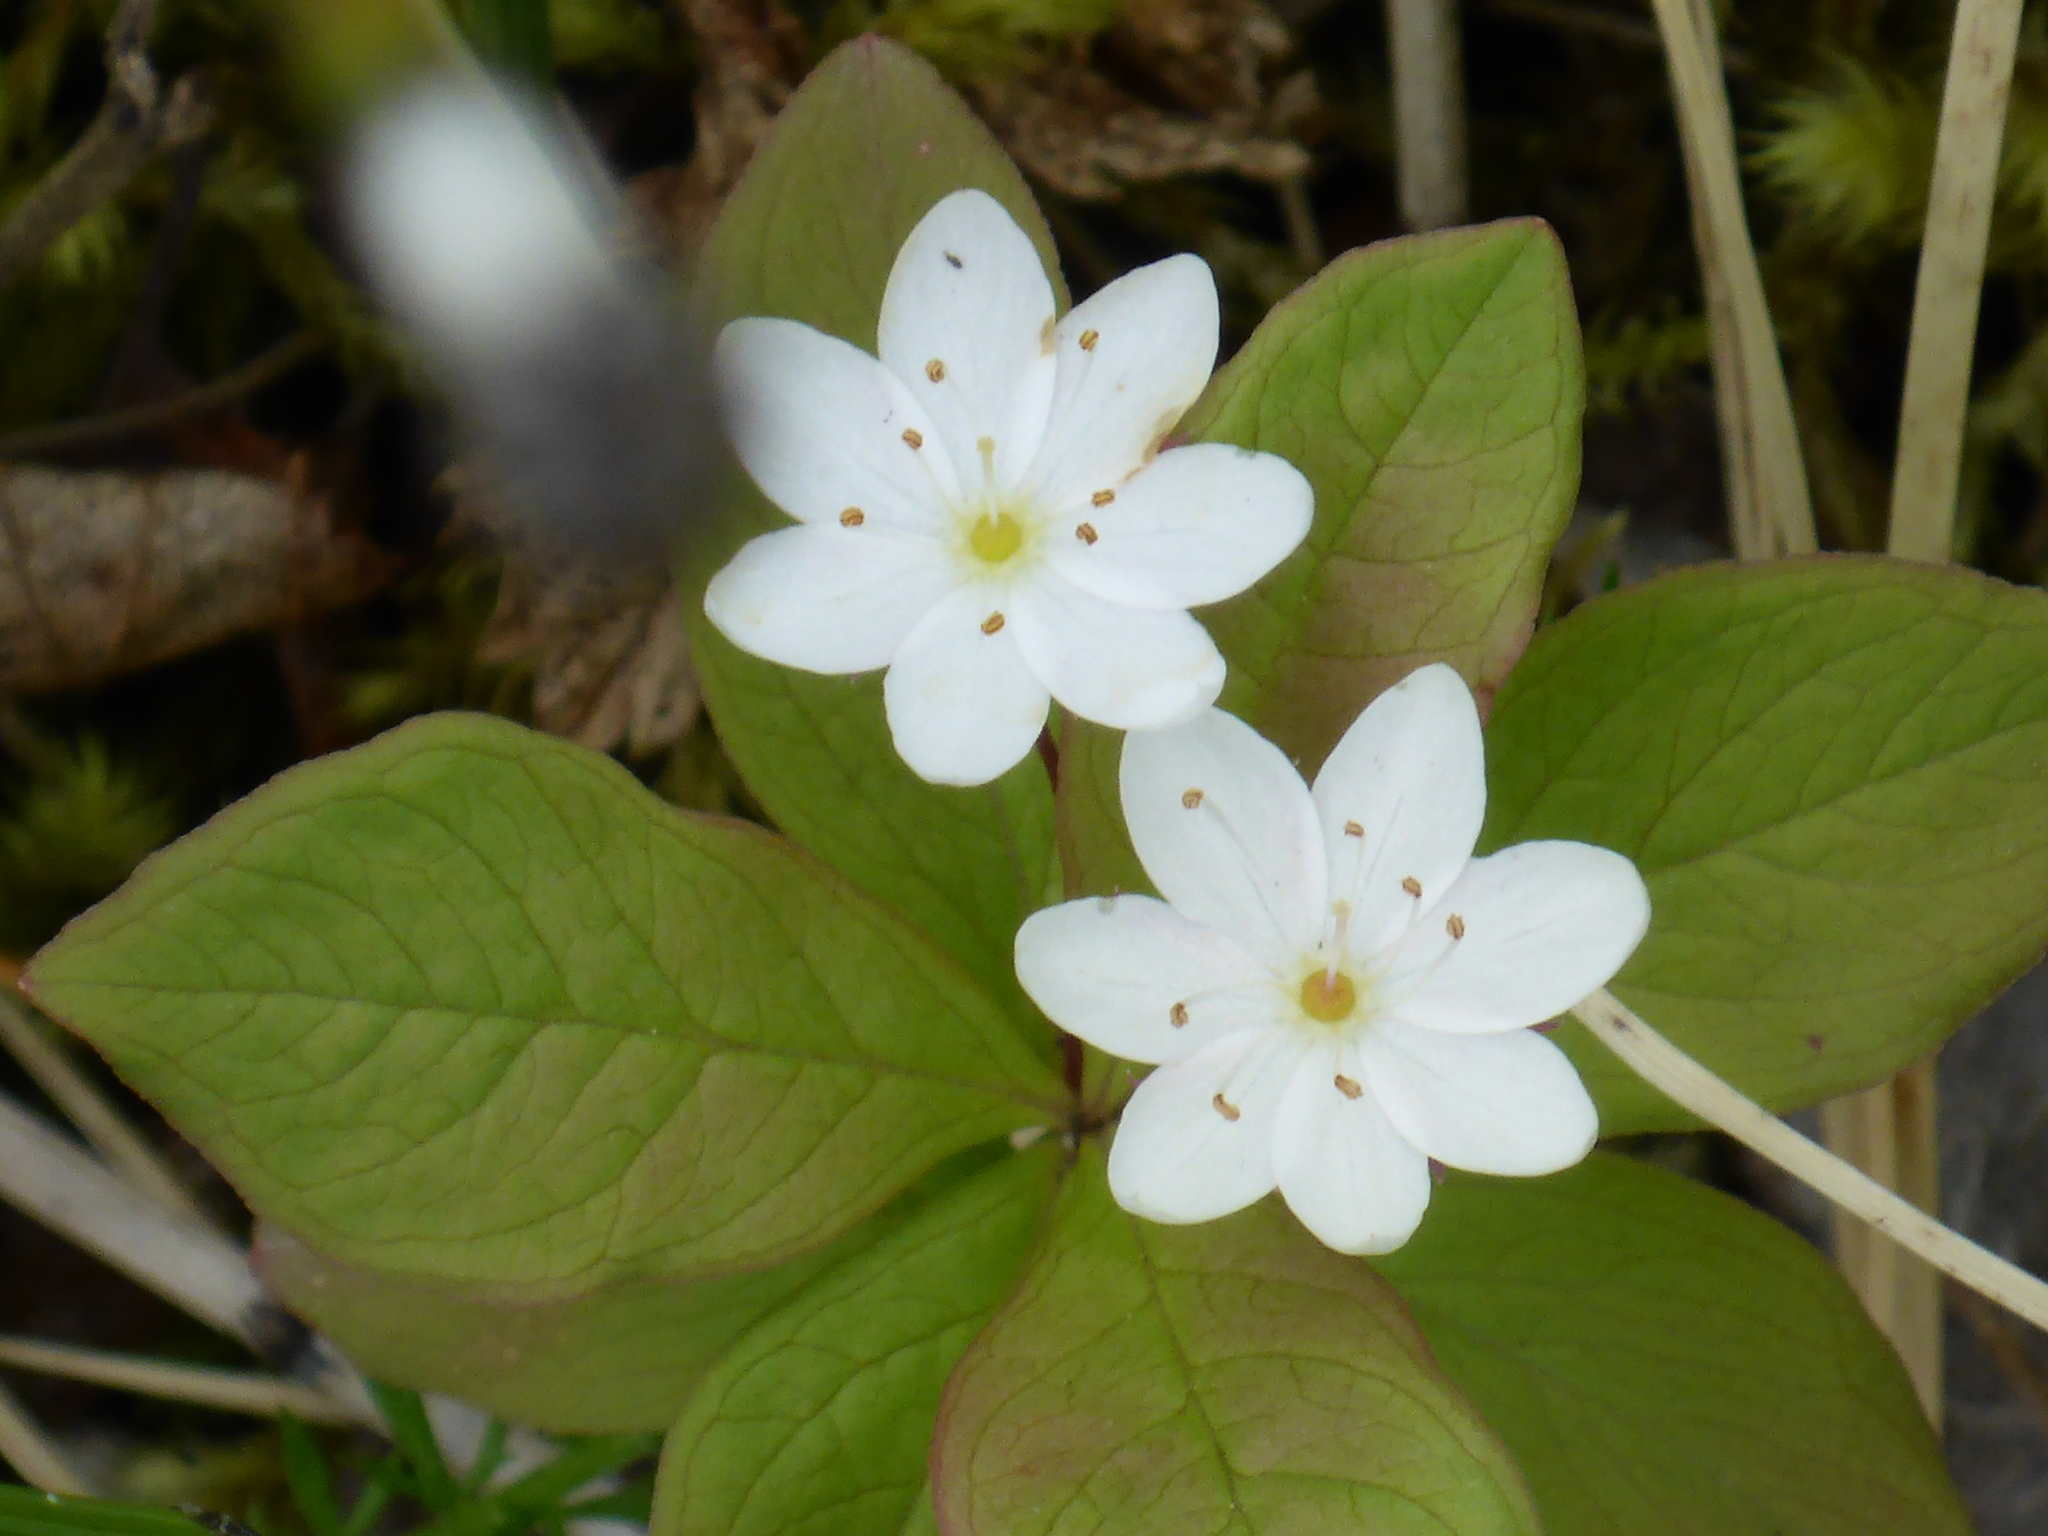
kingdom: Plantae
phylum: Tracheophyta
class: Magnoliopsida
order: Ericales
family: Primulaceae
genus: Lysimachia
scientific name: Lysimachia europaea
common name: Arctic starflower
